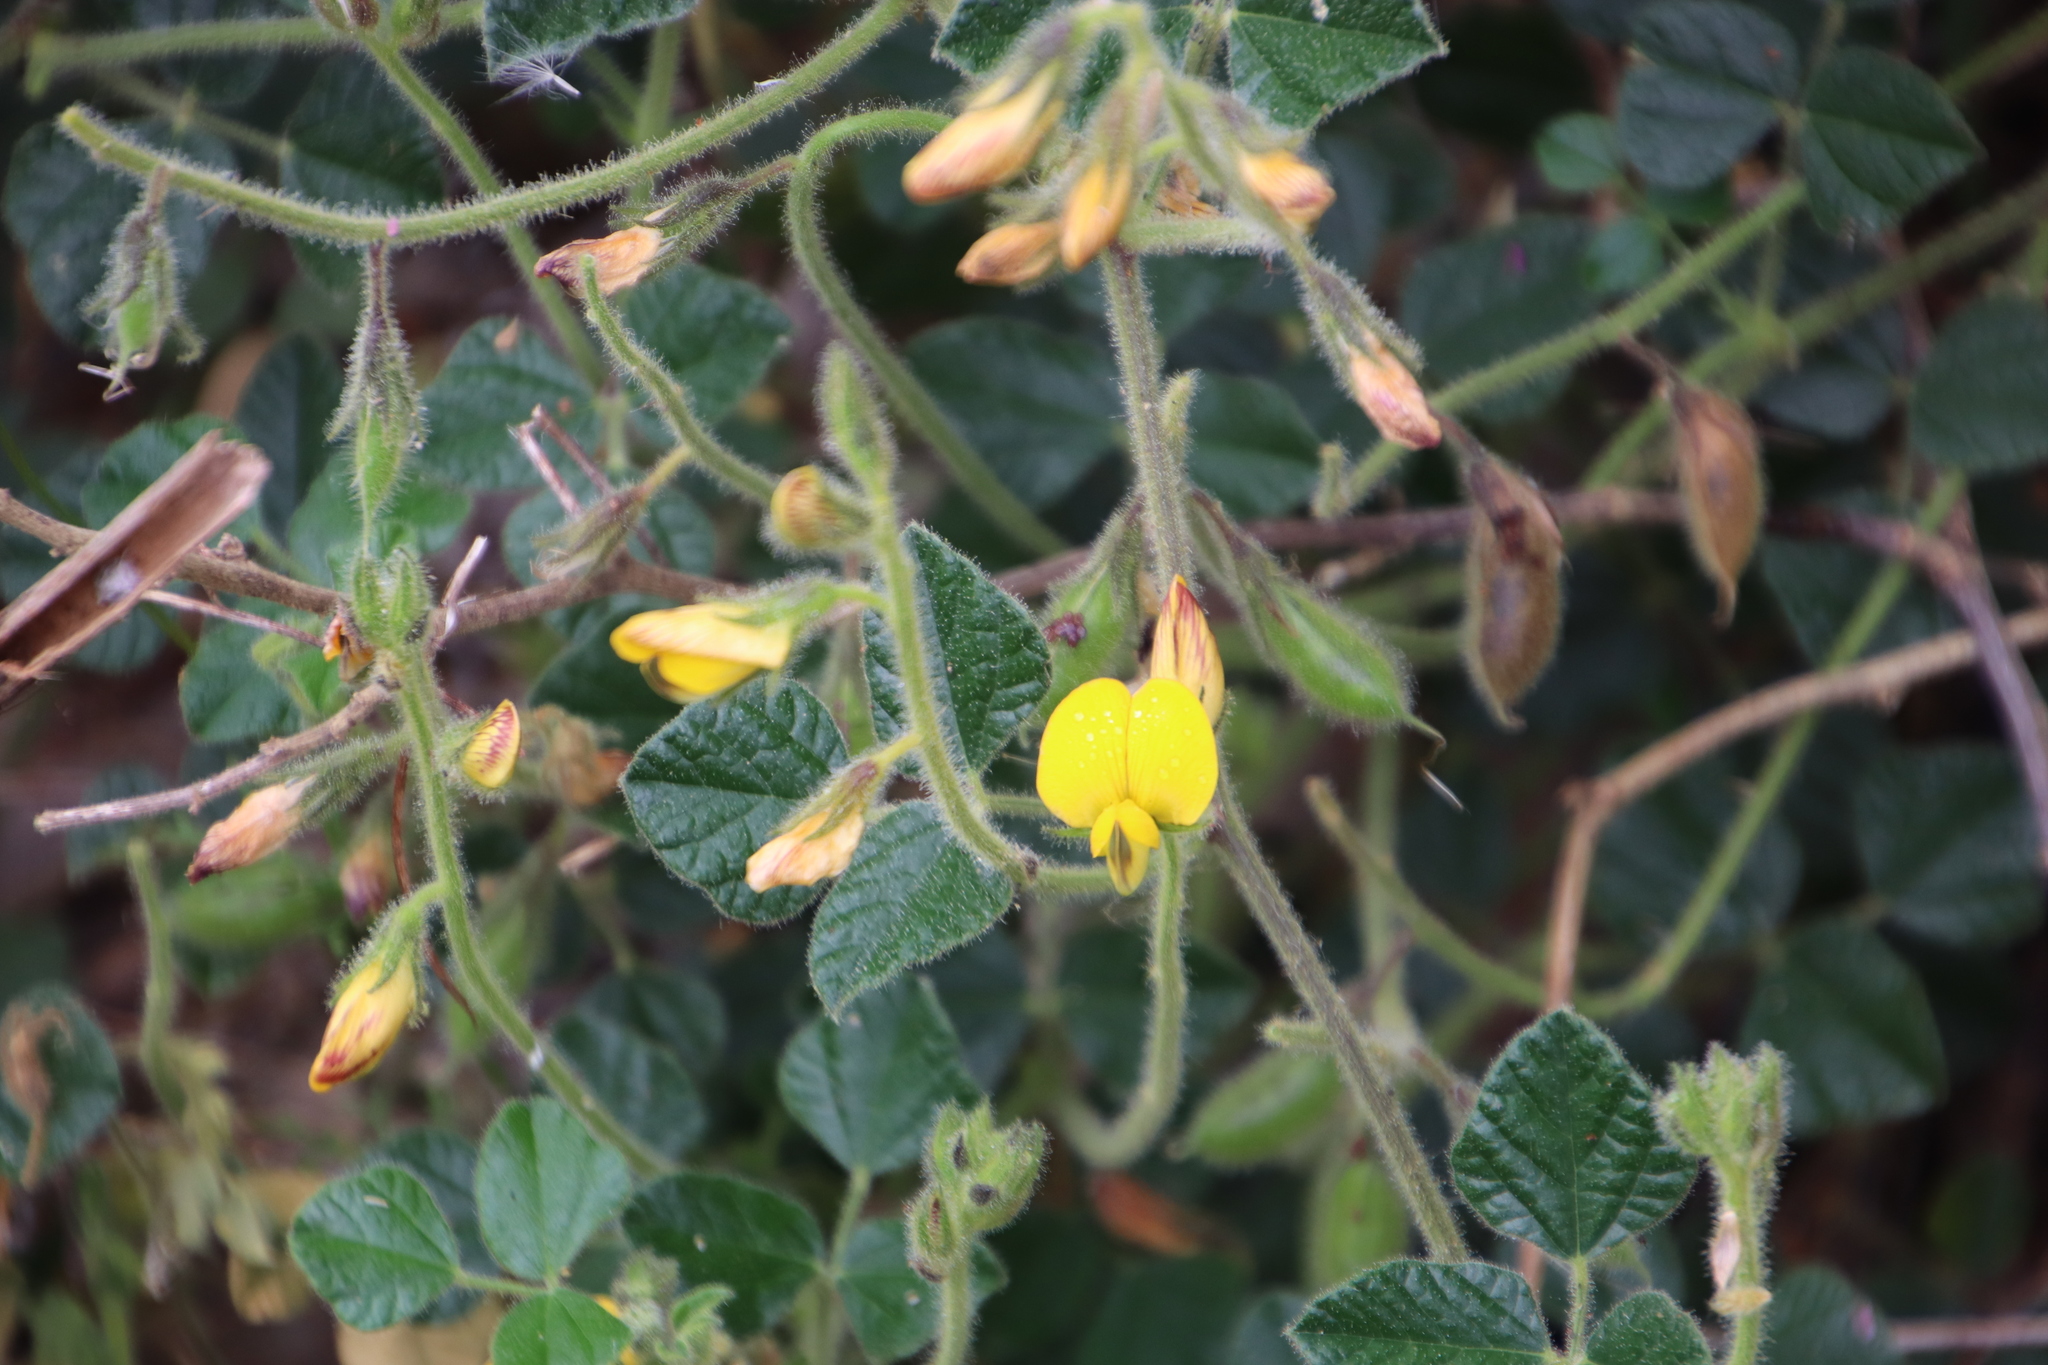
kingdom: Plantae
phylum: Tracheophyta
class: Magnoliopsida
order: Fabales
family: Fabaceae
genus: Bolusafra
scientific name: Bolusafra bituminosa
